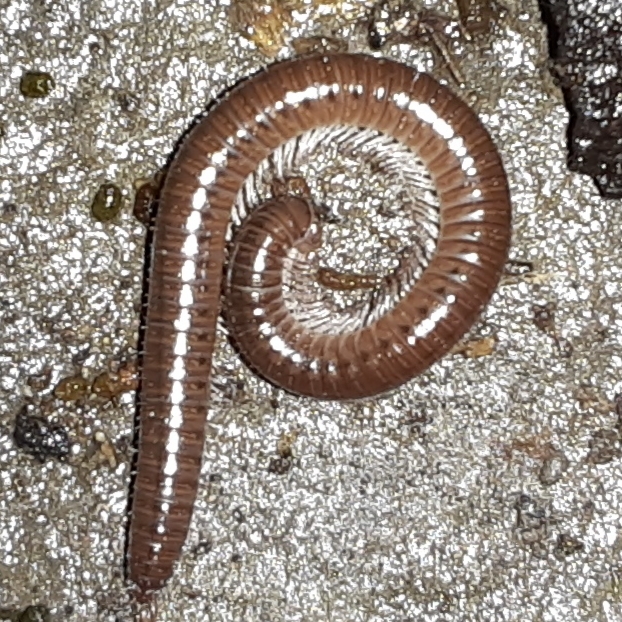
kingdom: Animalia
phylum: Arthropoda
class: Diplopoda
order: Julida
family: Parajulidae
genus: Ptyoiulus
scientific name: Ptyoiulus impressus
